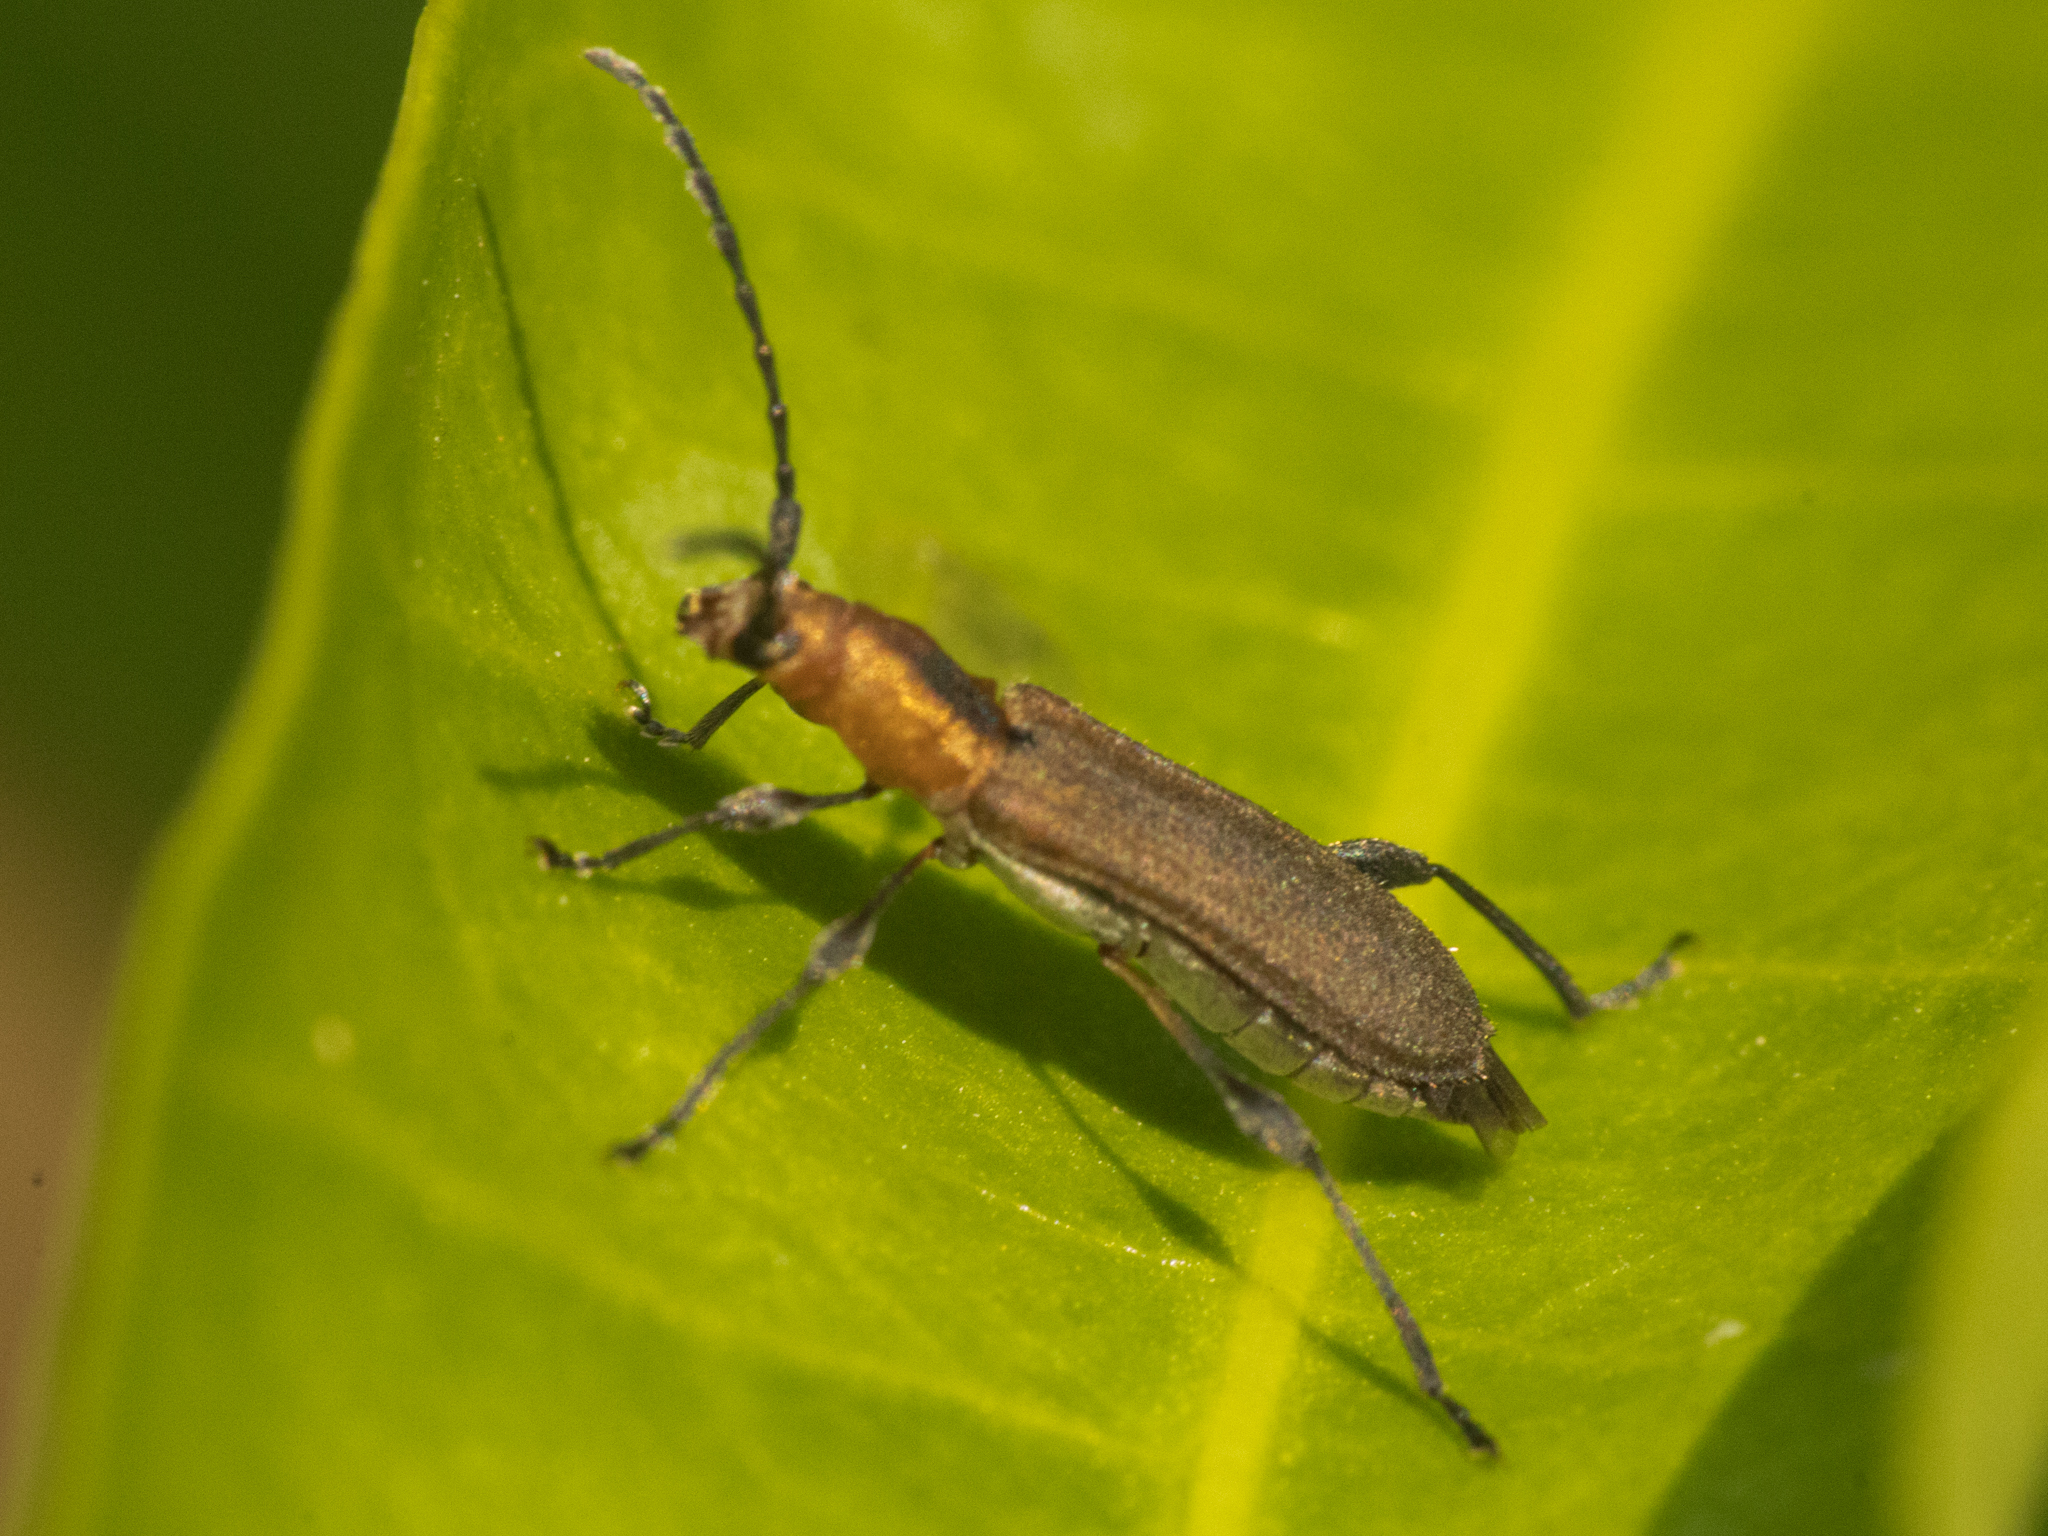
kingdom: Animalia
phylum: Arthropoda
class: Insecta
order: Coleoptera
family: Cerambycidae
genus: Dihammaphora
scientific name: Dihammaphora nigrovittata
